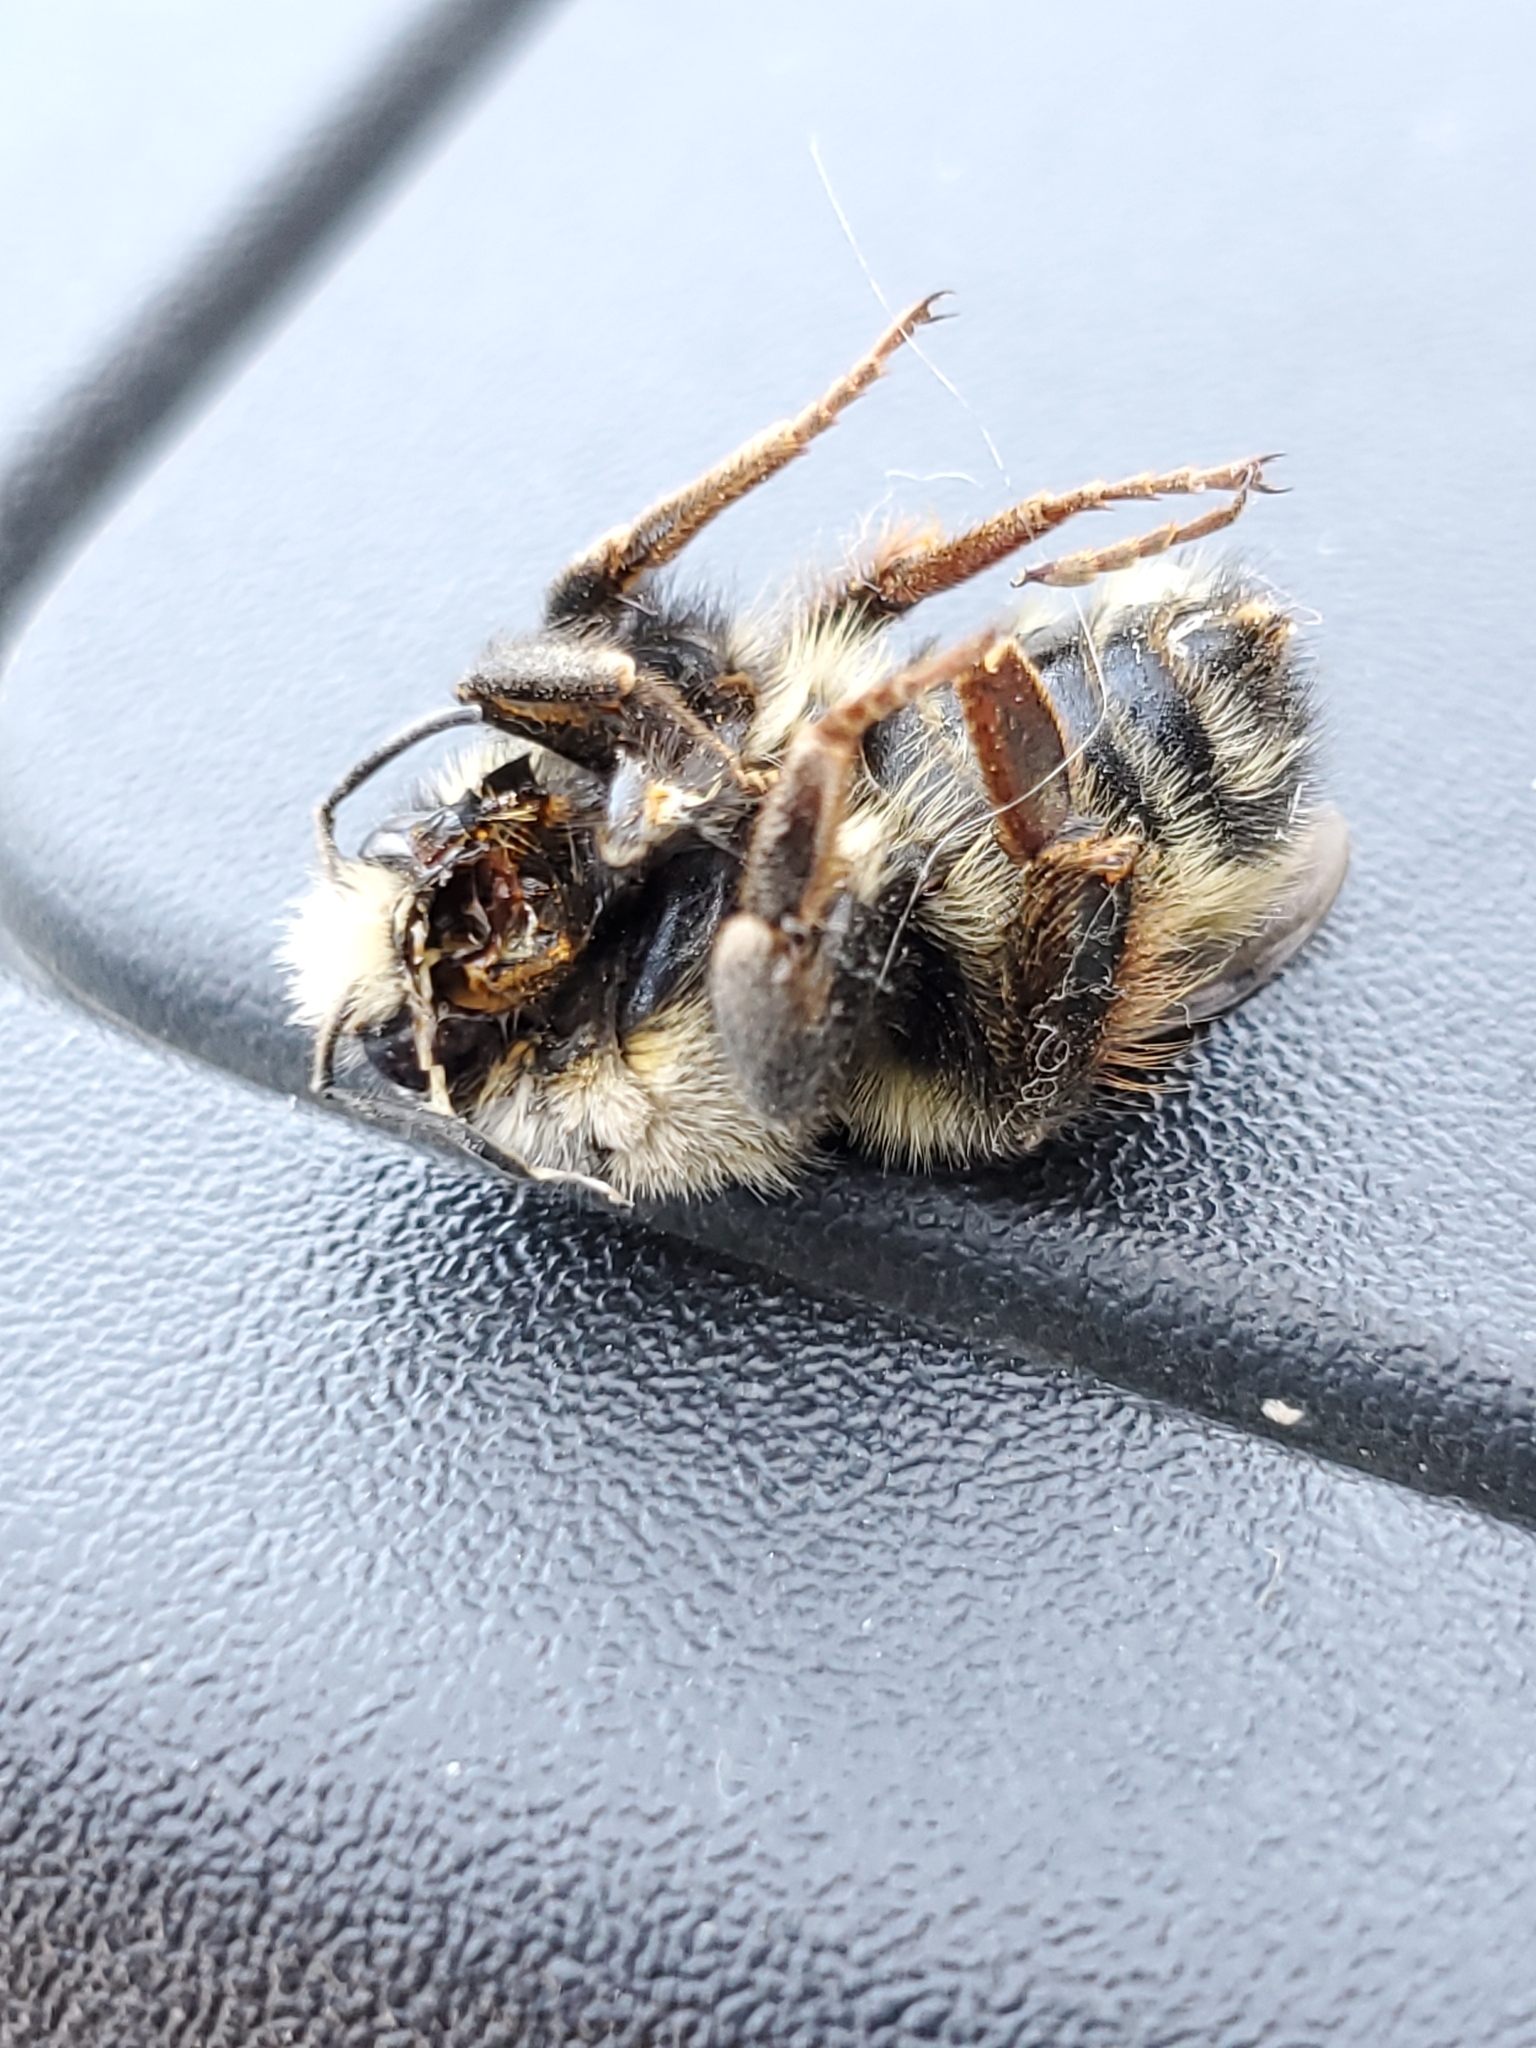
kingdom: Animalia
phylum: Arthropoda
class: Insecta
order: Hymenoptera
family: Apidae
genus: Bombus
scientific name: Bombus vancouverensis
